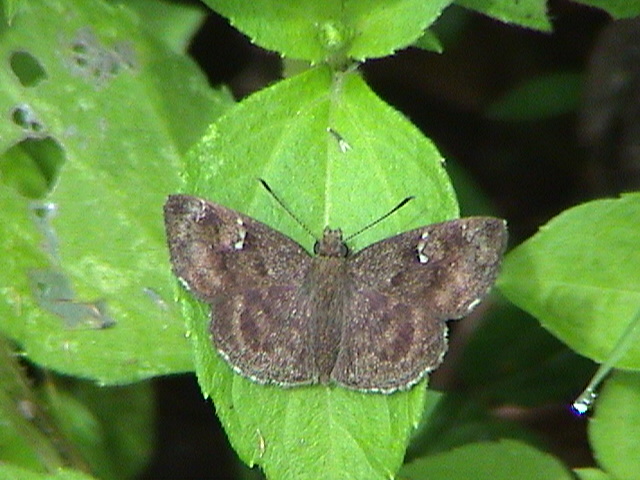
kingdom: Animalia
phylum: Arthropoda
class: Insecta
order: Lepidoptera
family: Hesperiidae
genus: Sarangesa
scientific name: Sarangesa dasahara
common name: Common small flat
